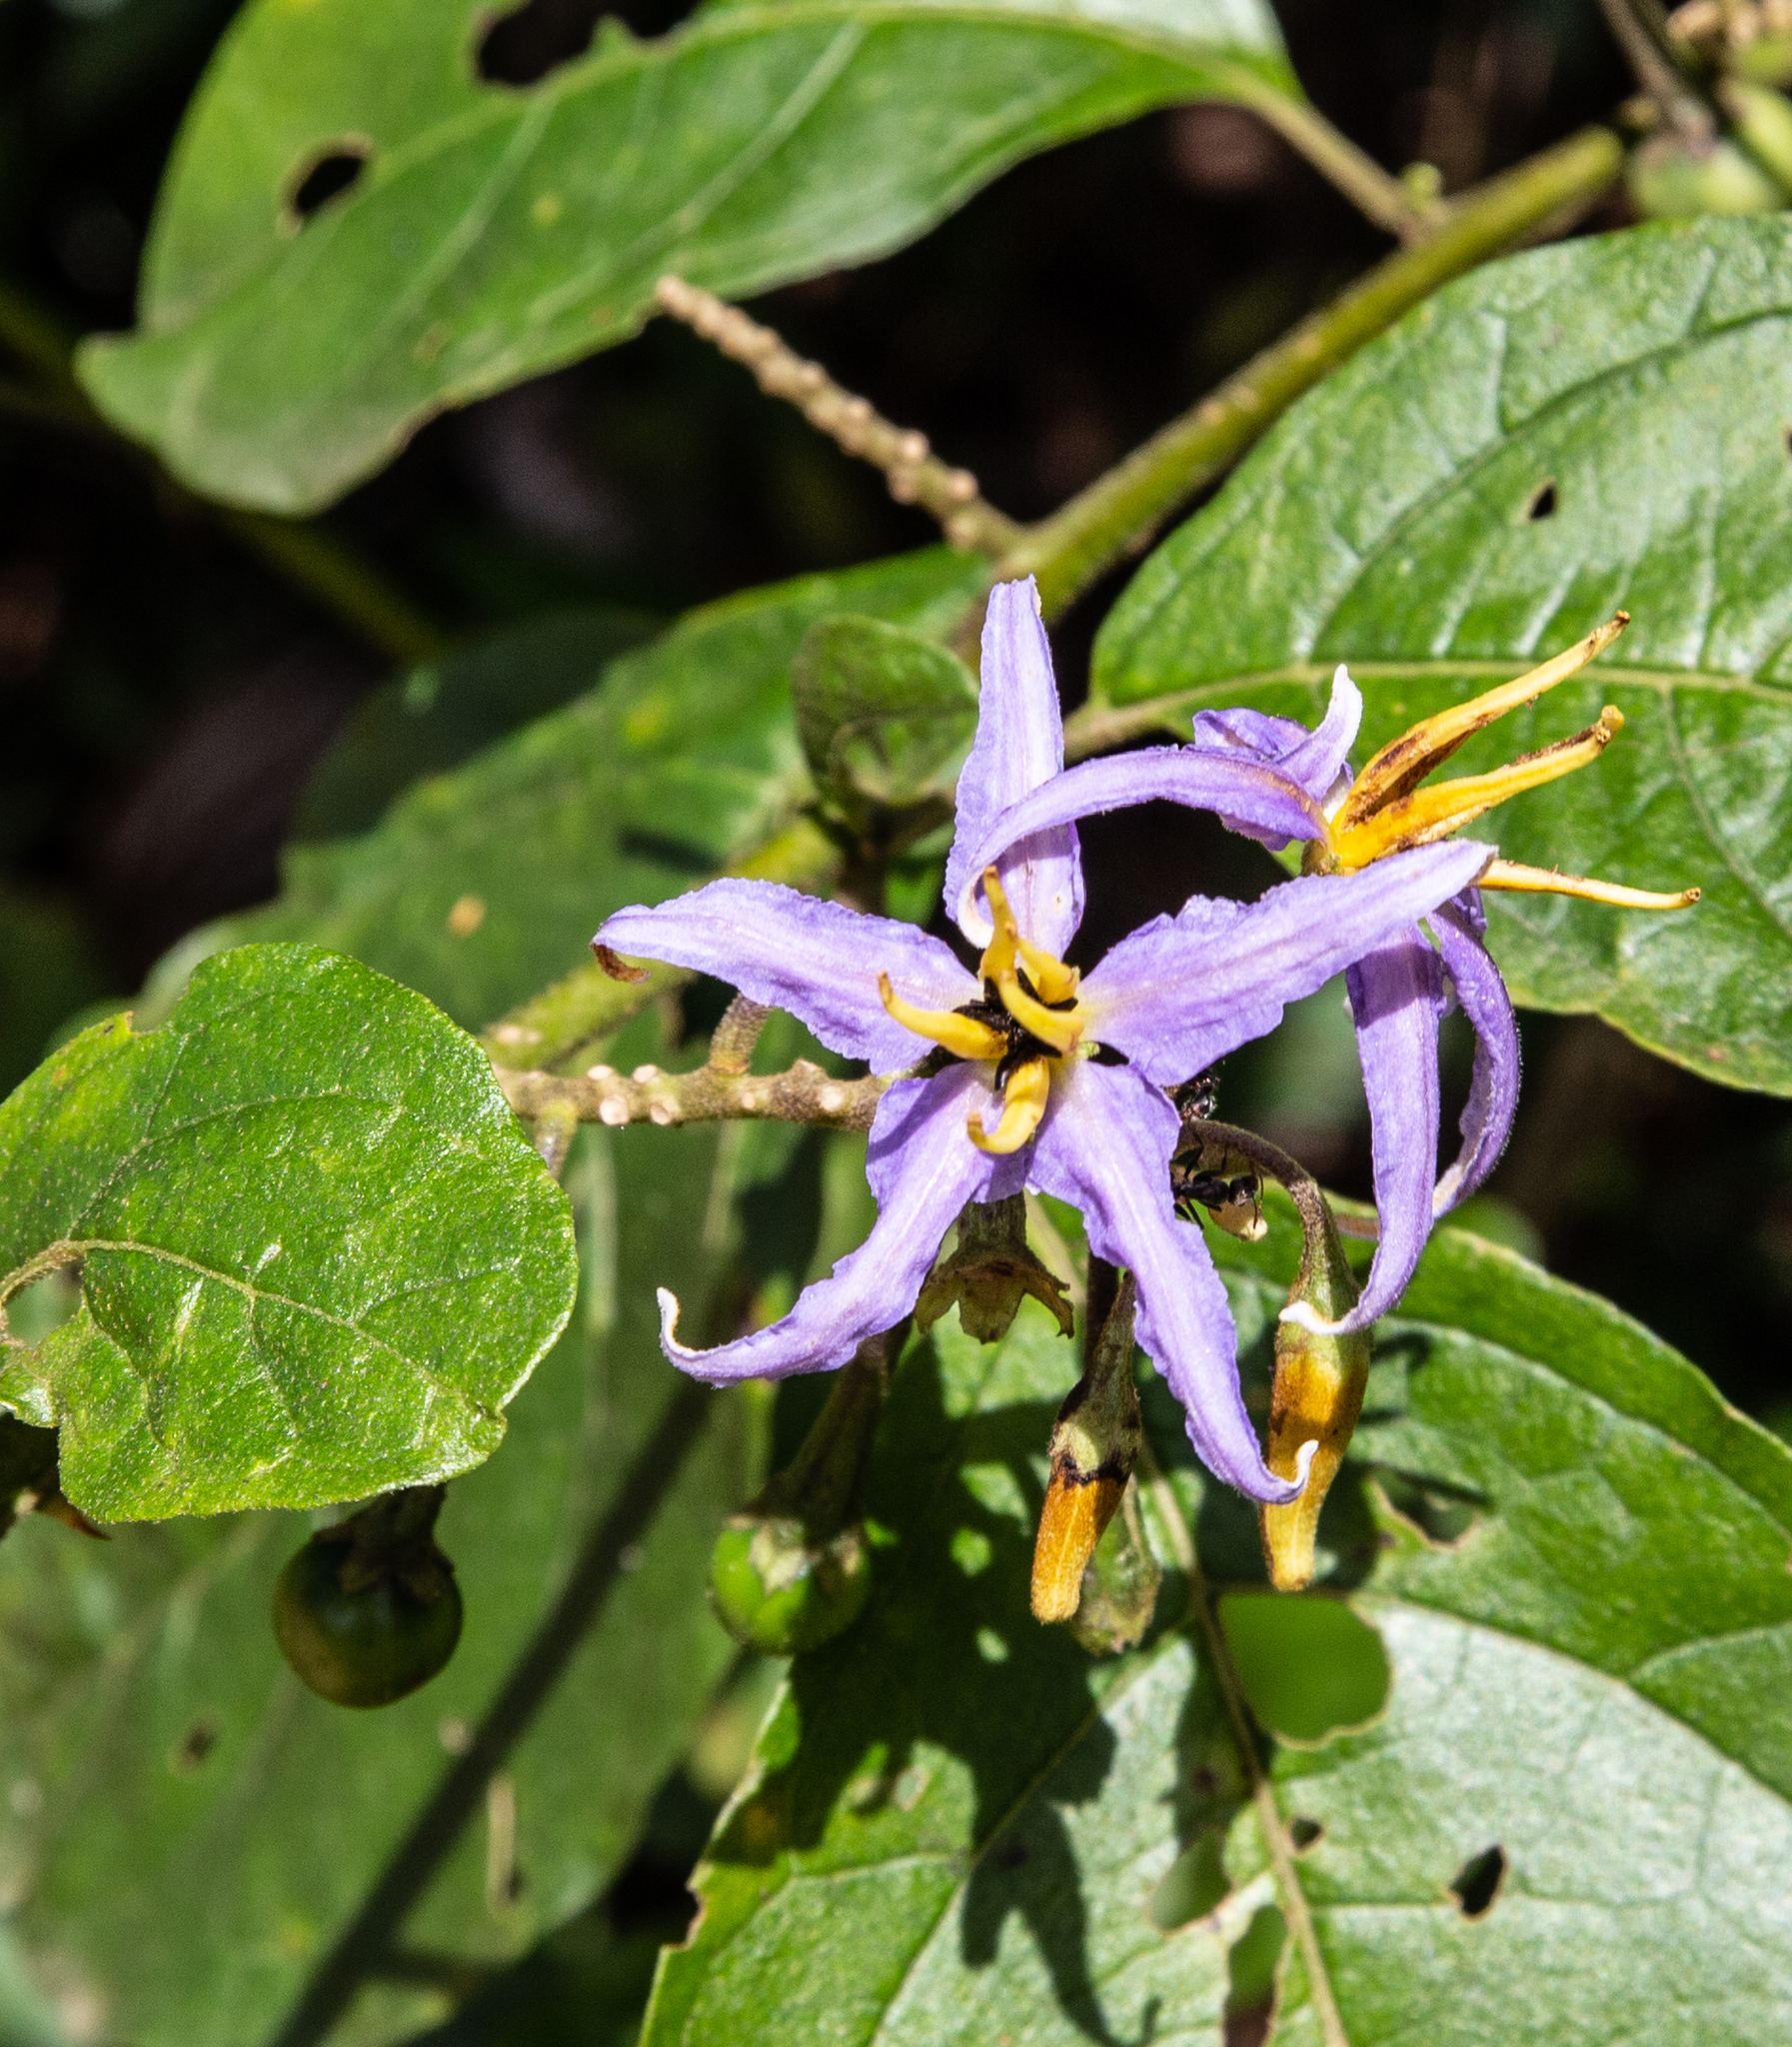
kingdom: Plantae
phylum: Tracheophyta
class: Magnoliopsida
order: Solanales
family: Solanaceae
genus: Solanum
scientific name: Solanum subinerme
